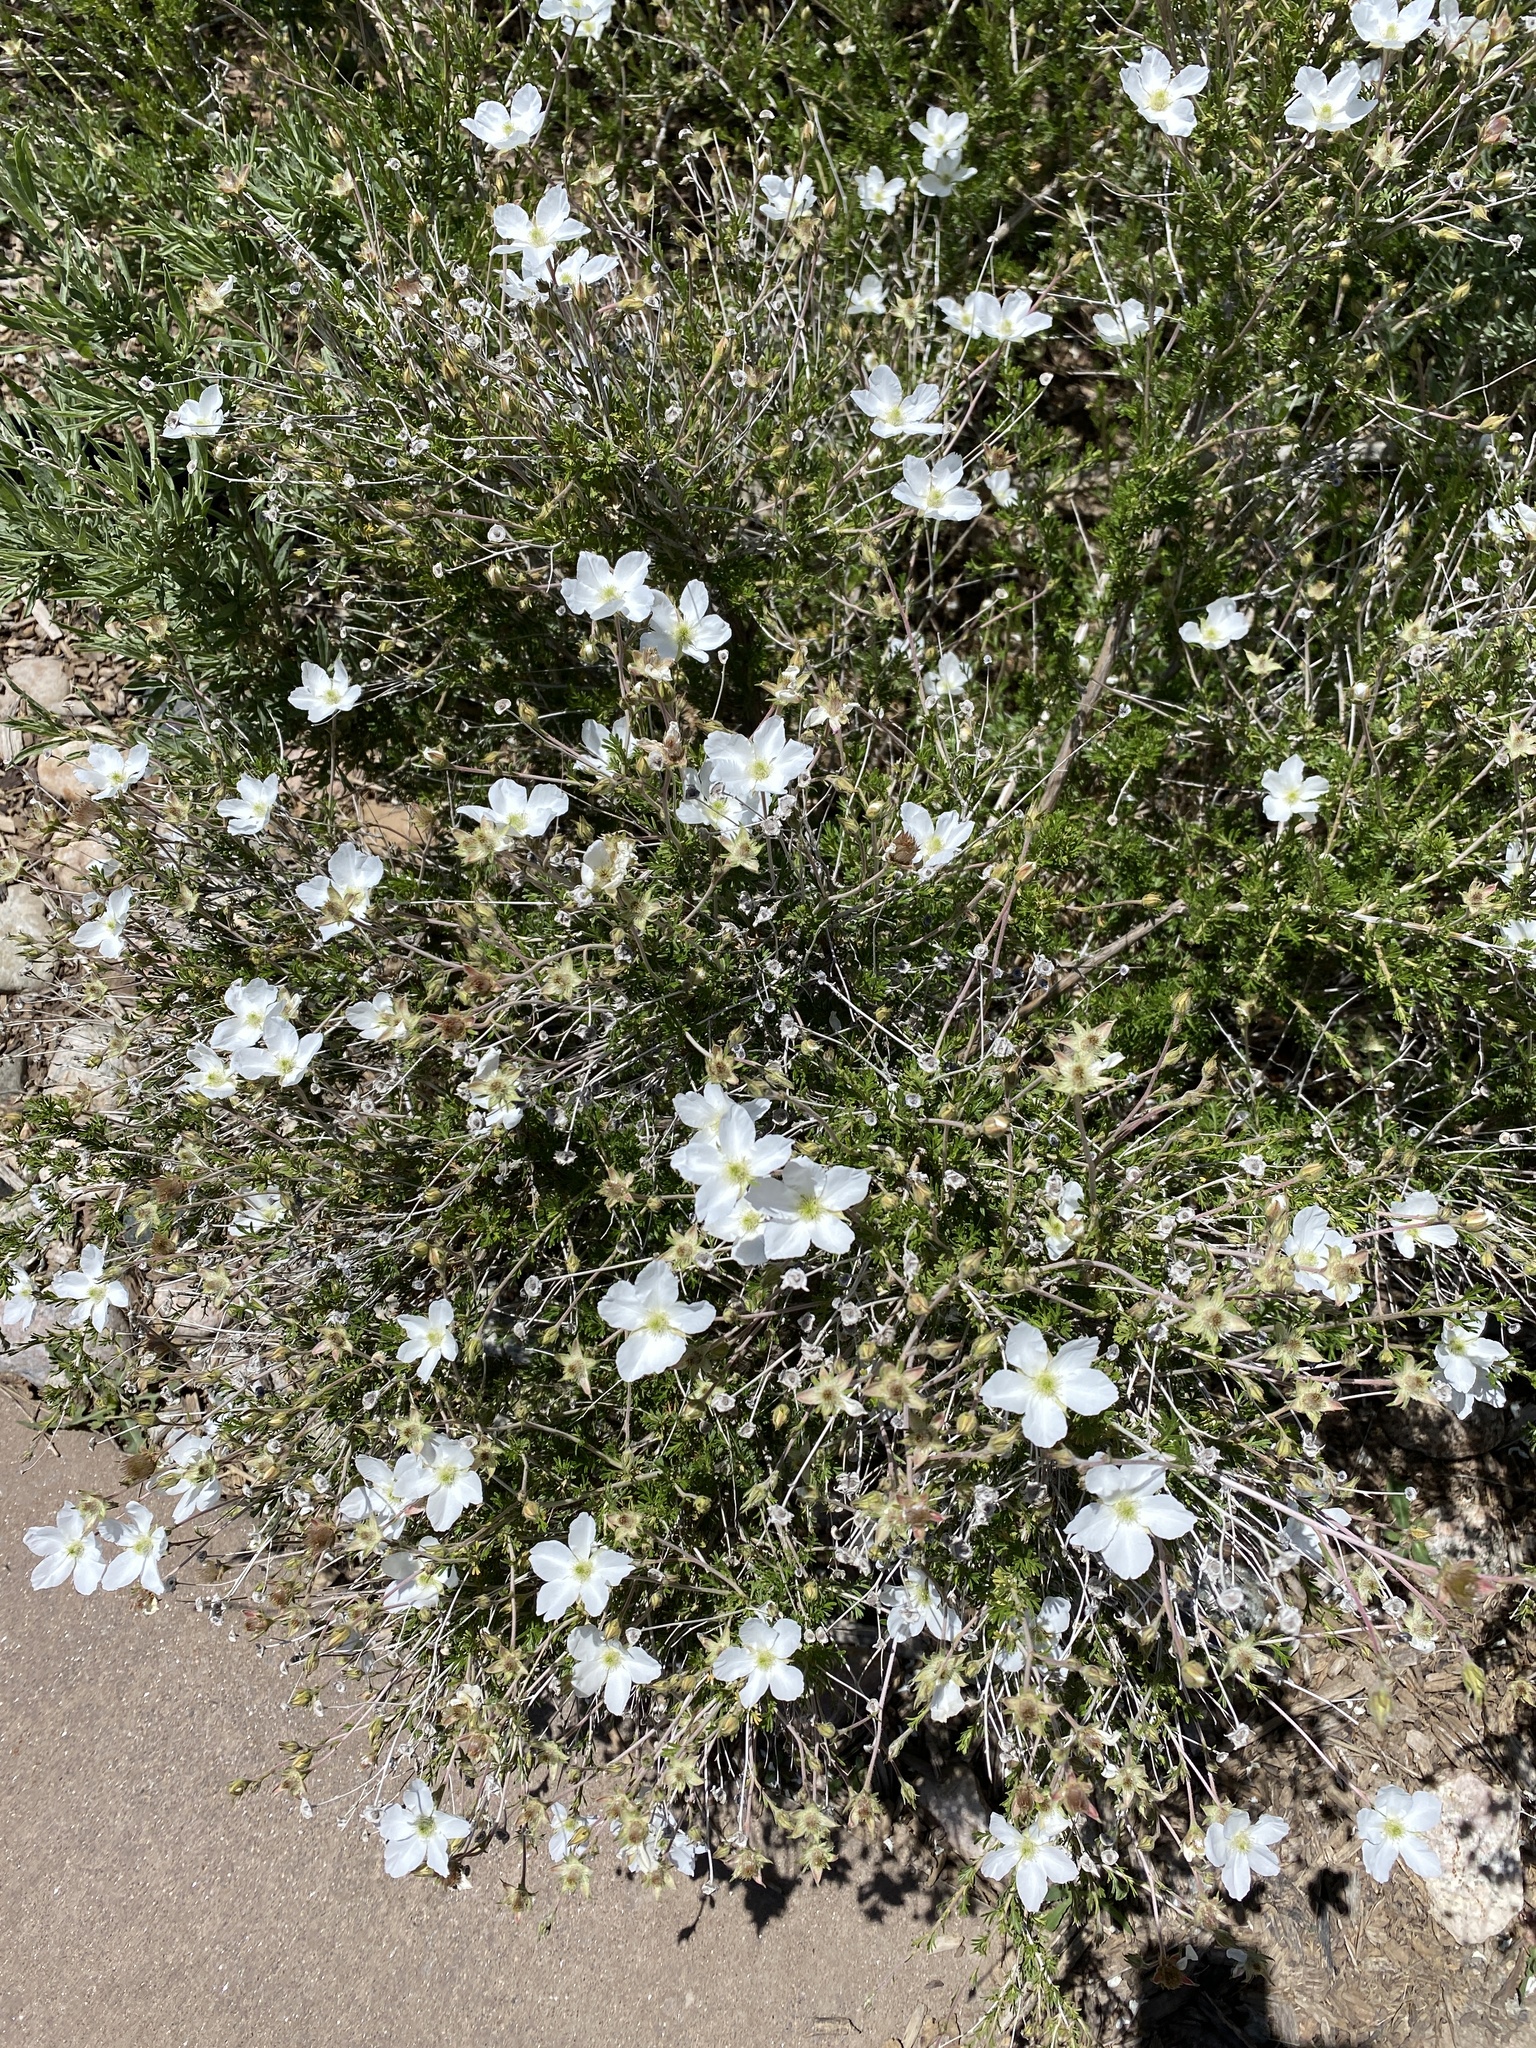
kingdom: Plantae
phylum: Tracheophyta
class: Magnoliopsida
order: Rosales
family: Rosaceae
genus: Fallugia
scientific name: Fallugia paradoxa
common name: Apache-plume
